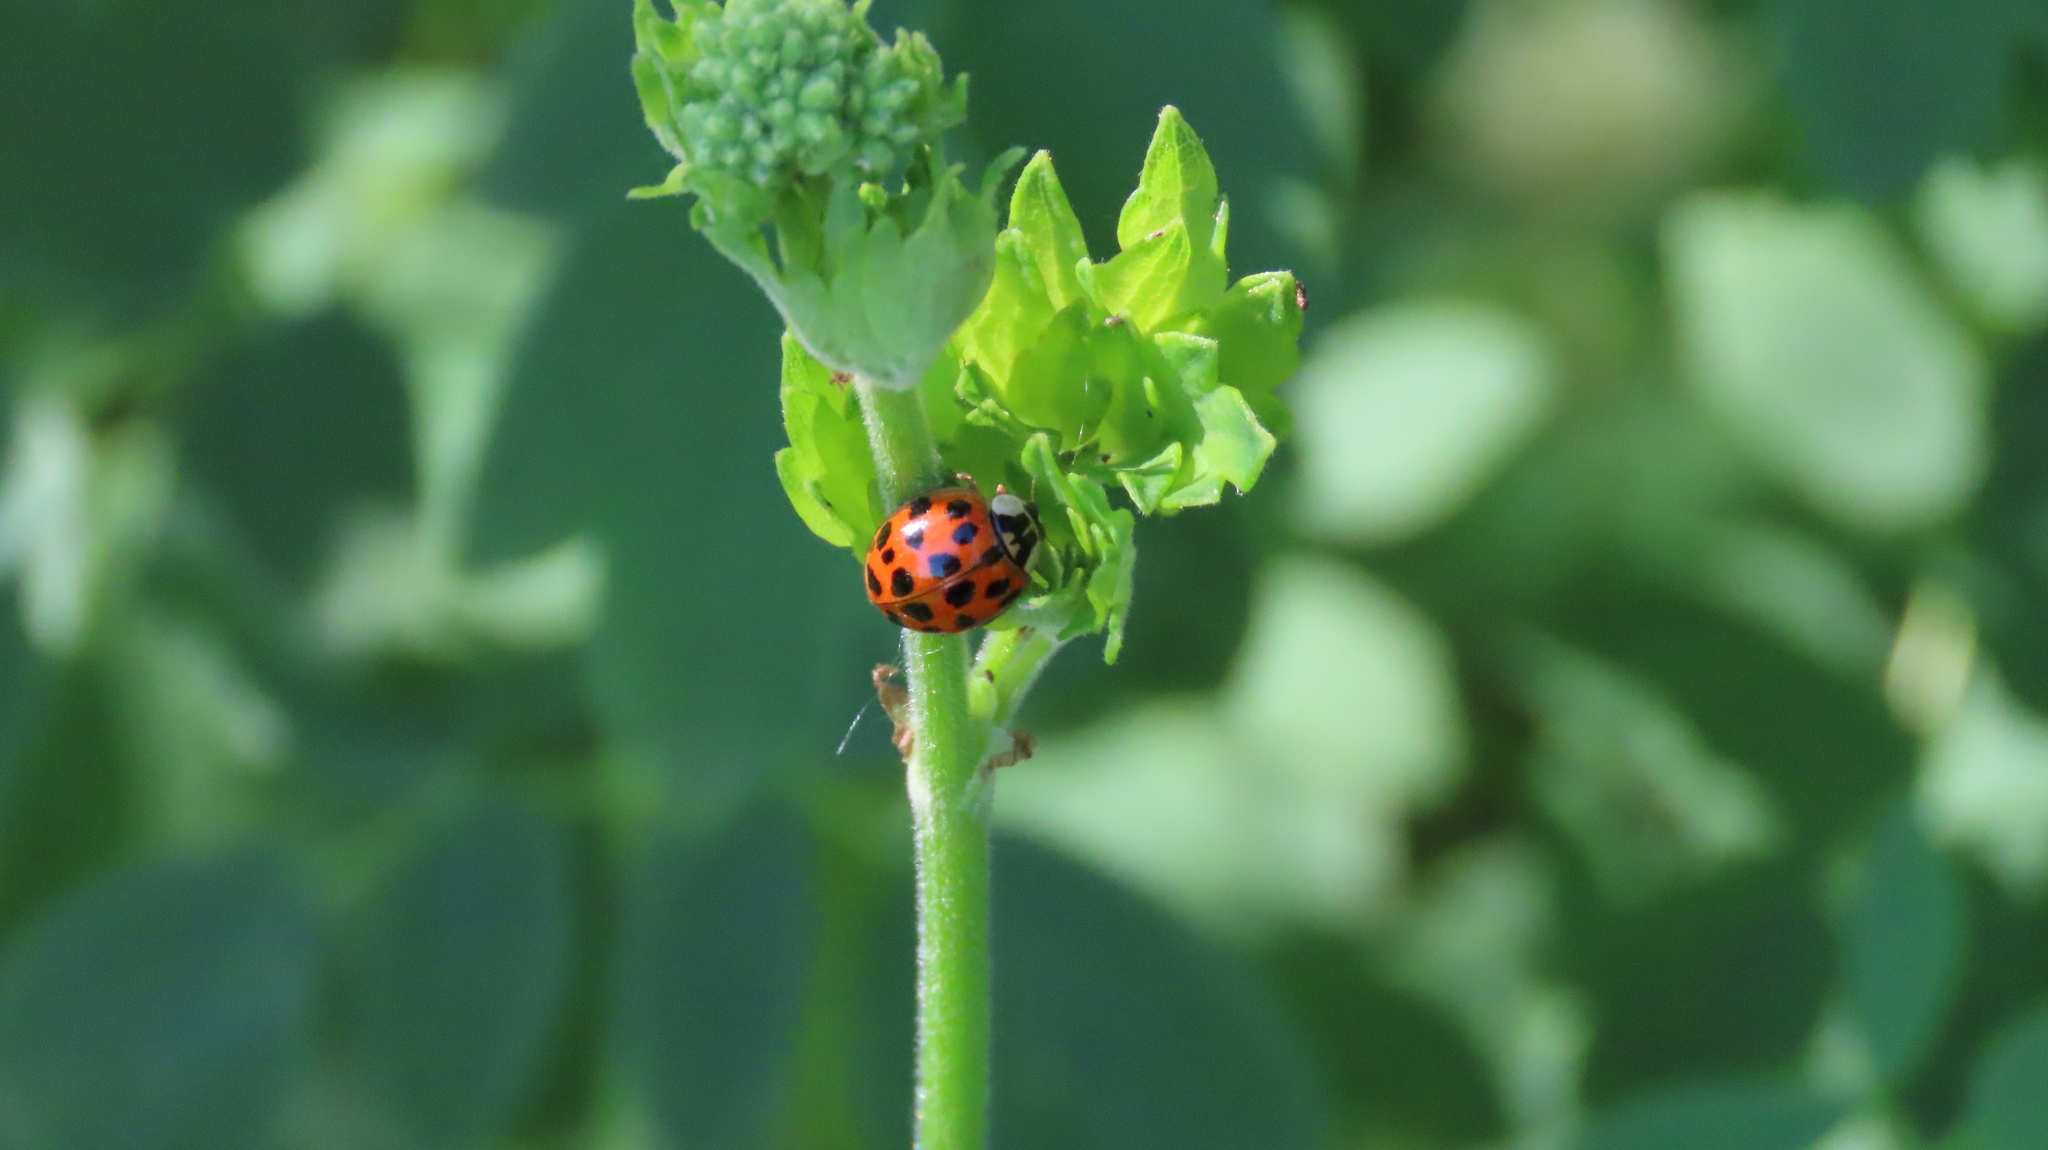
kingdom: Animalia
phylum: Arthropoda
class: Insecta
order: Coleoptera
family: Coccinellidae
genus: Harmonia
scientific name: Harmonia axyridis
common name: Harlequin ladybird
